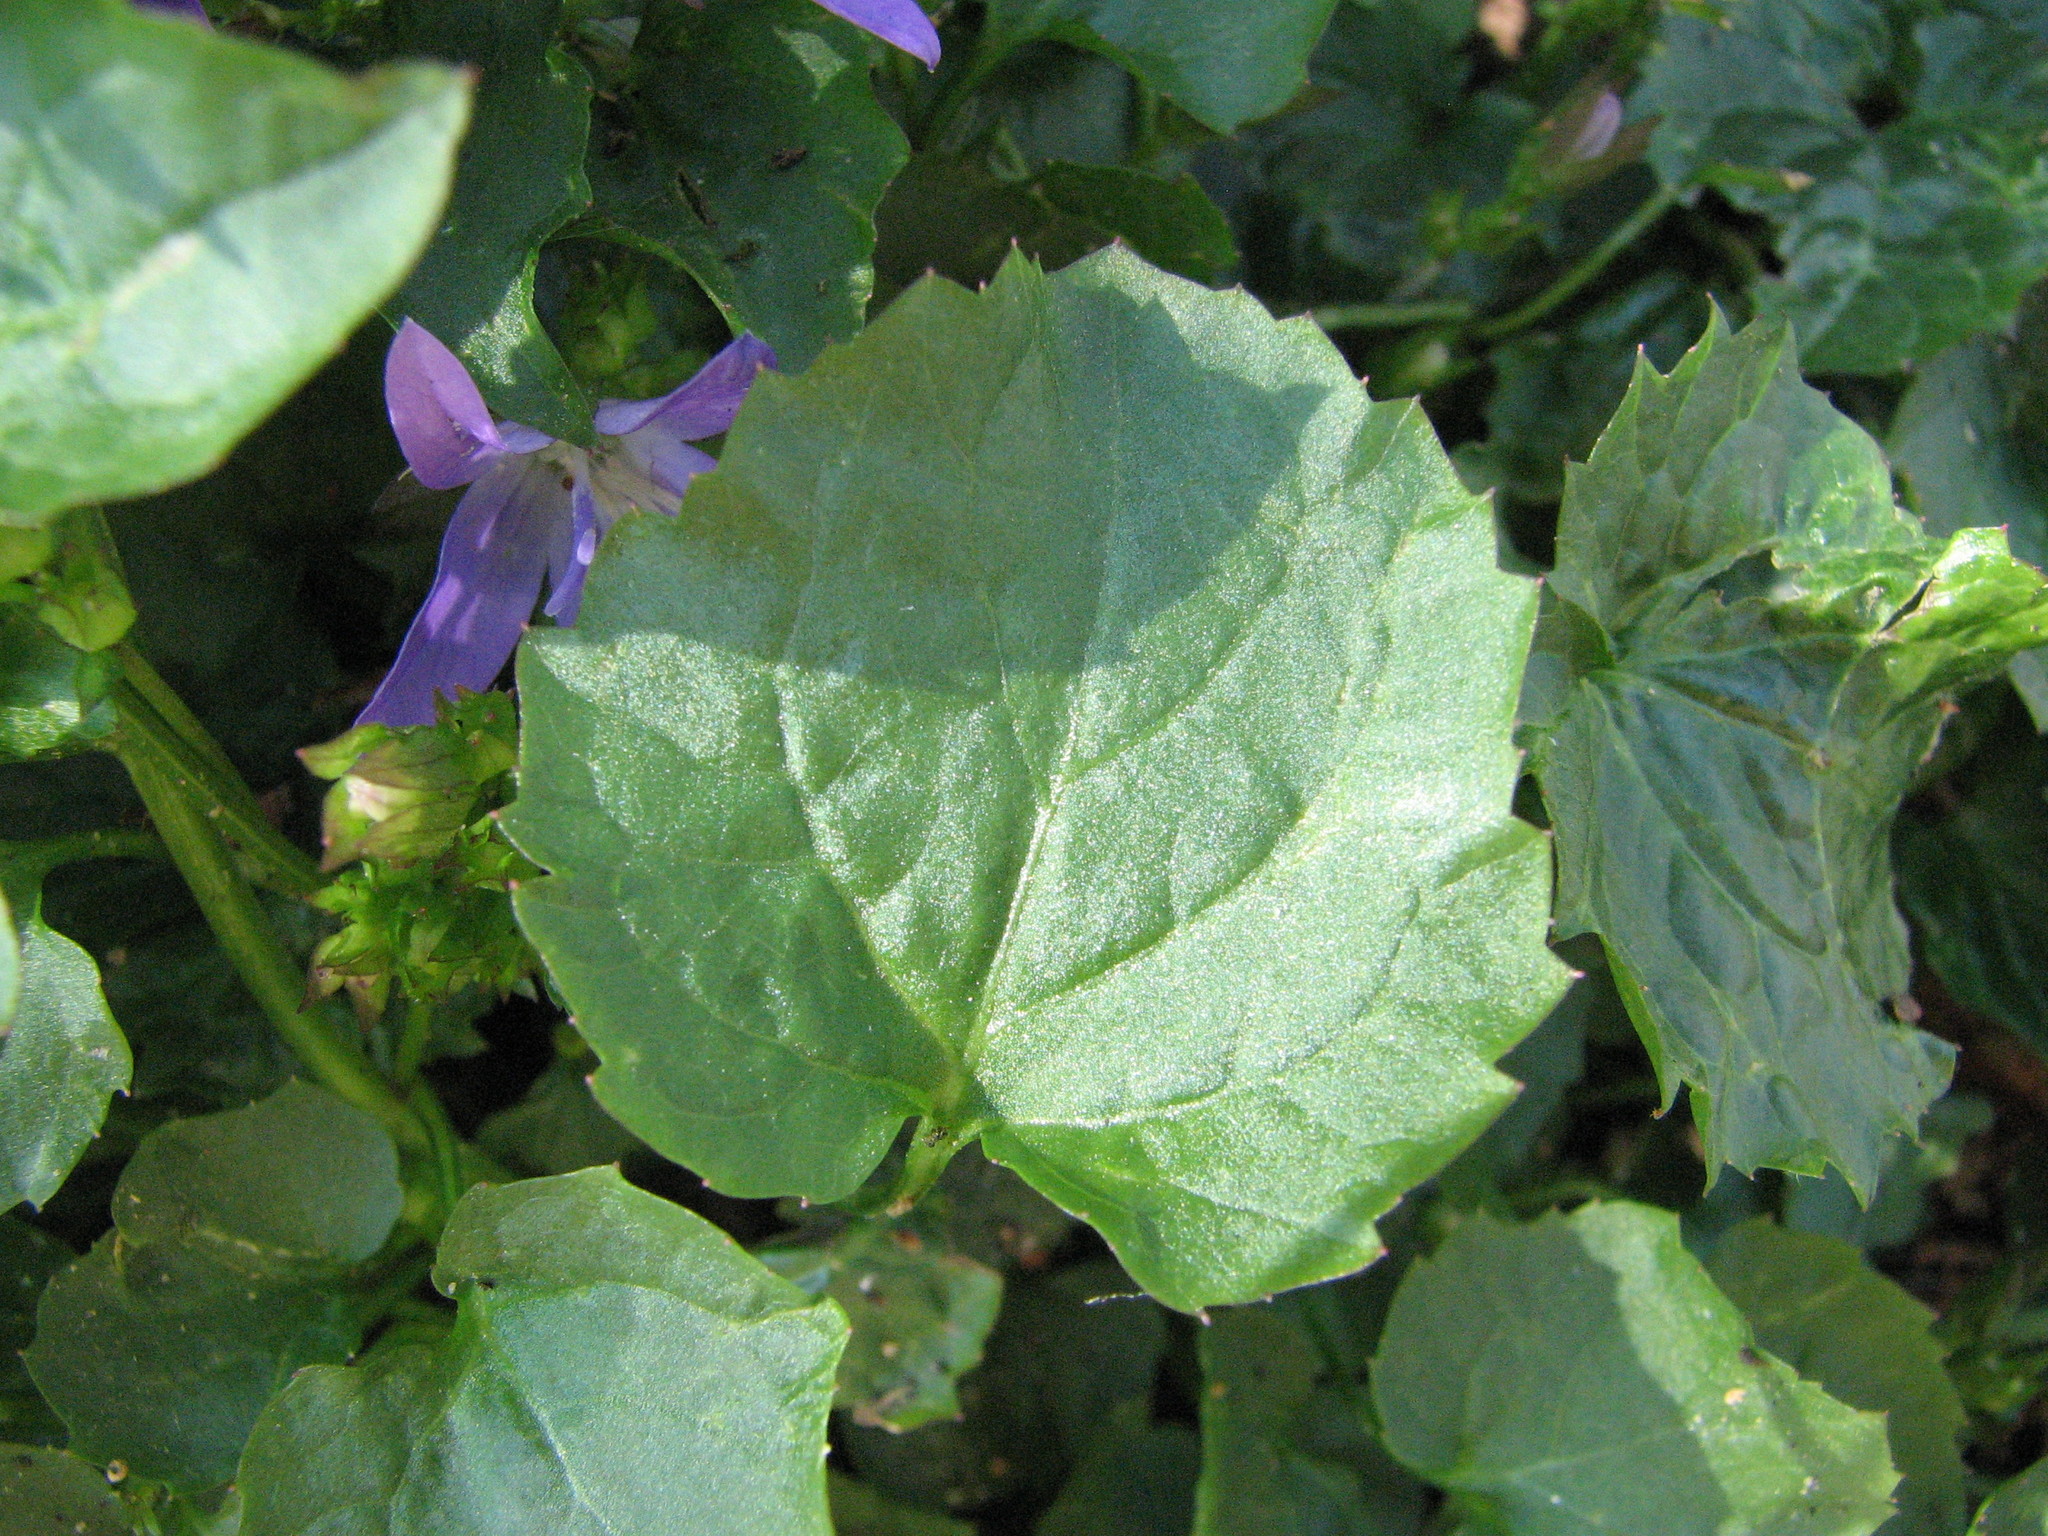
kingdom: Plantae
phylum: Tracheophyta
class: Magnoliopsida
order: Asterales
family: Campanulaceae
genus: Campanula
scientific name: Campanula poscharskyana
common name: Trailing bellflower
